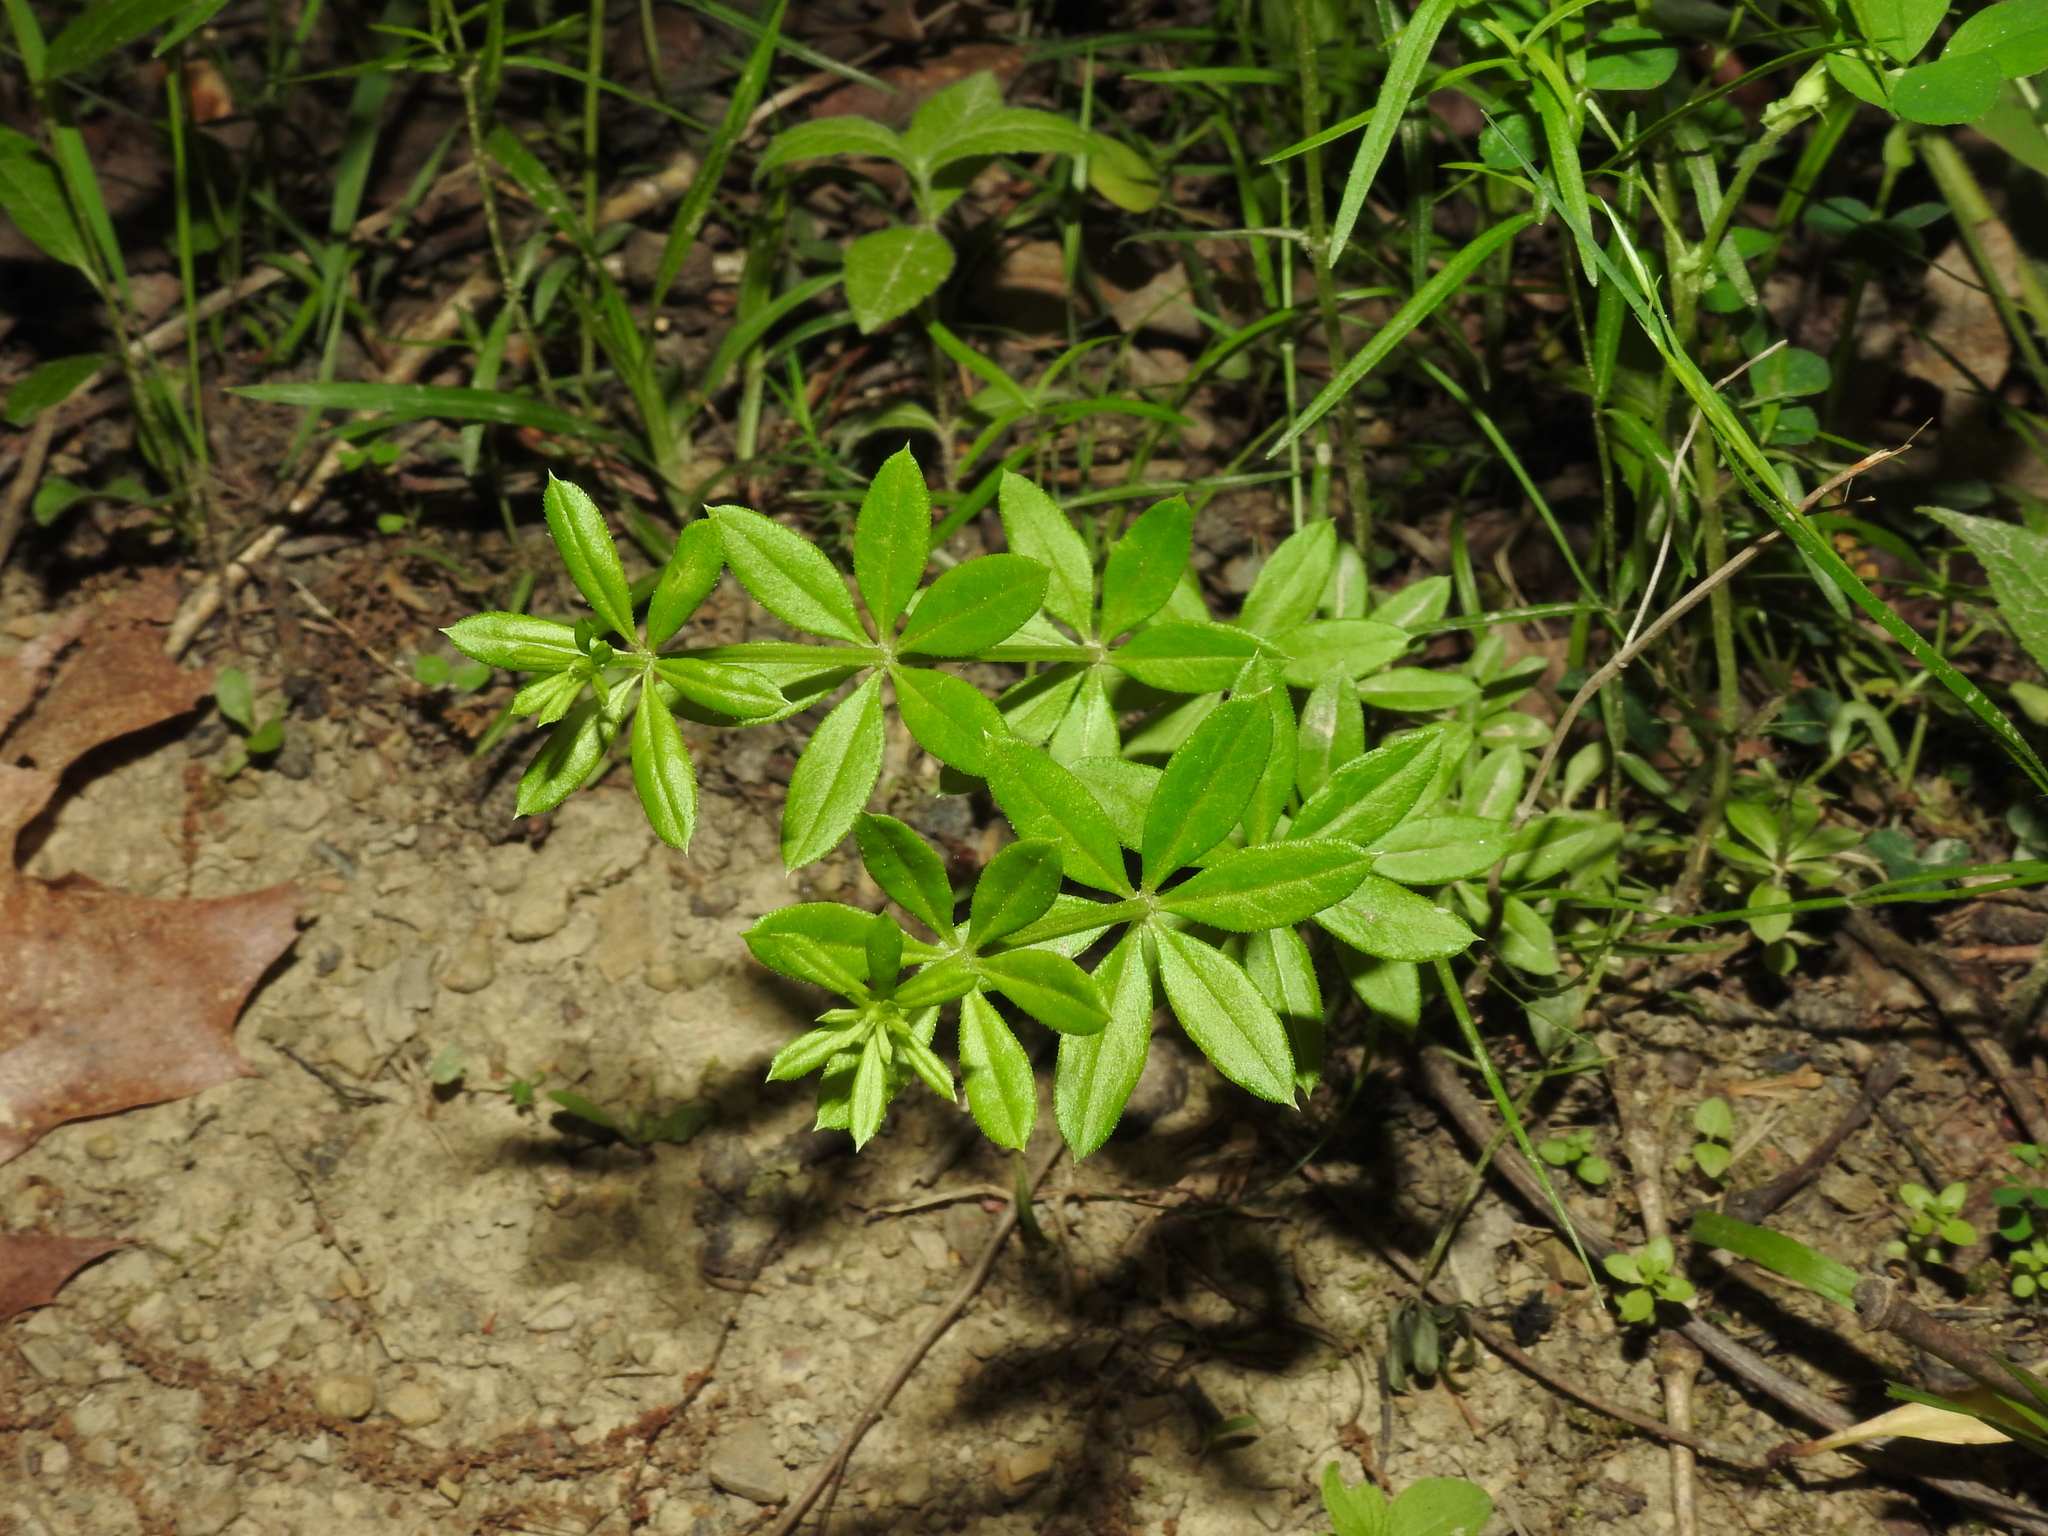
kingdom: Plantae
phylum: Tracheophyta
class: Magnoliopsida
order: Gentianales
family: Rubiaceae
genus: Galium
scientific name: Galium triflorum
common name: Fragrant bedstraw
